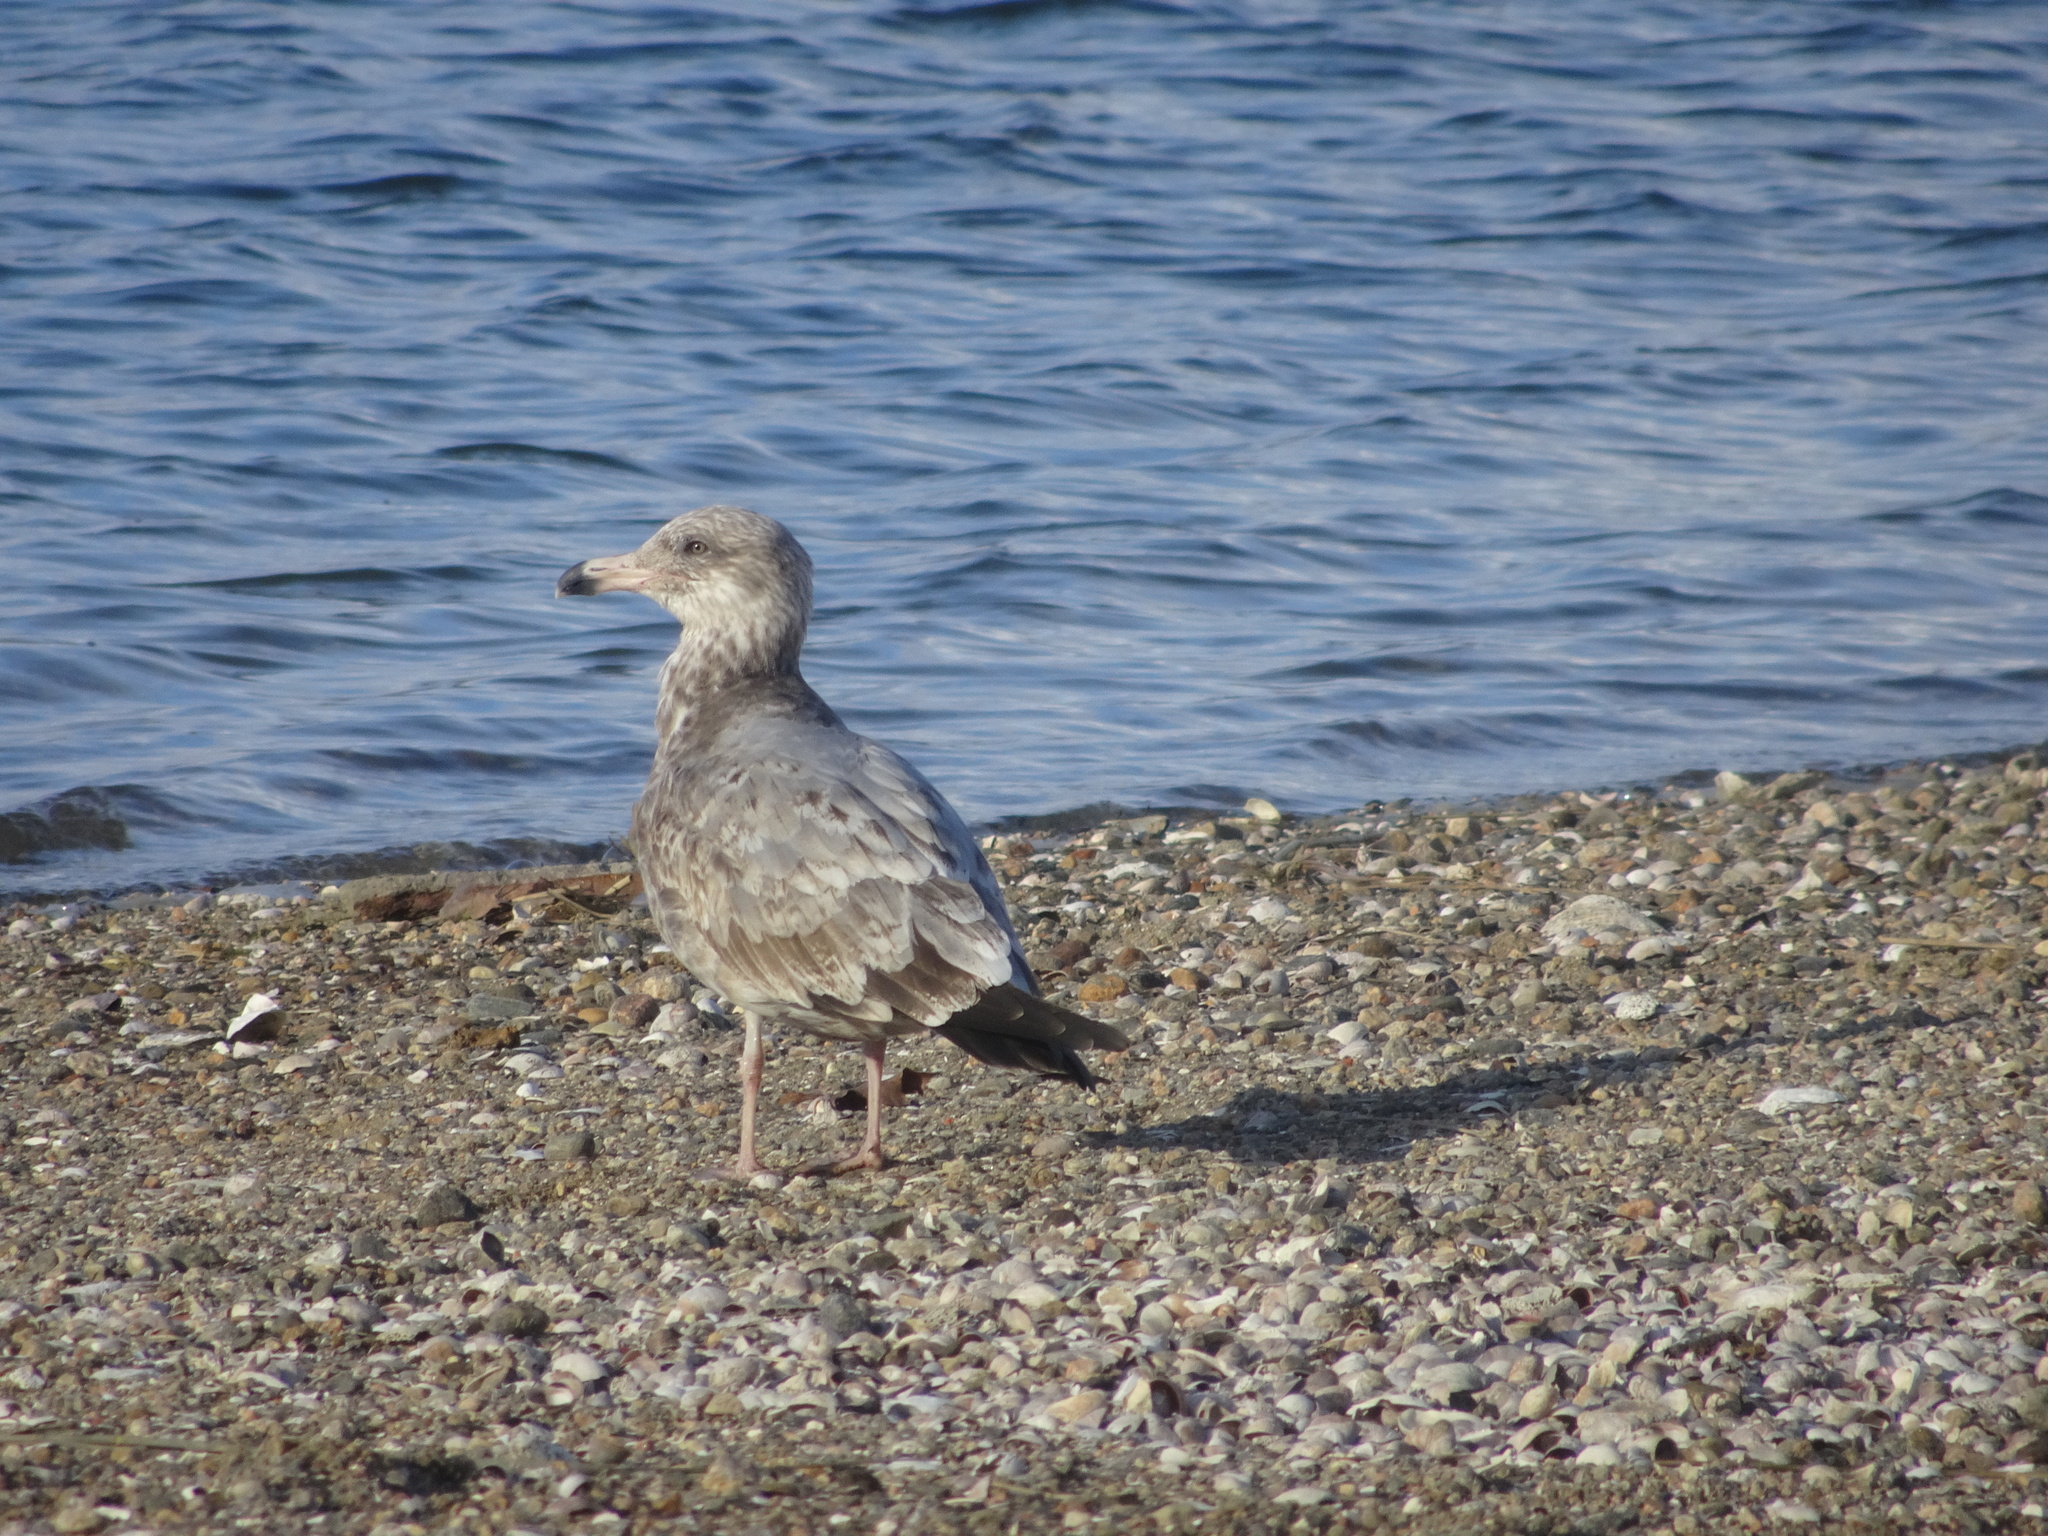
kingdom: Animalia
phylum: Chordata
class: Aves
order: Charadriiformes
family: Laridae
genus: Larus
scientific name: Larus argentatus
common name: Herring gull
